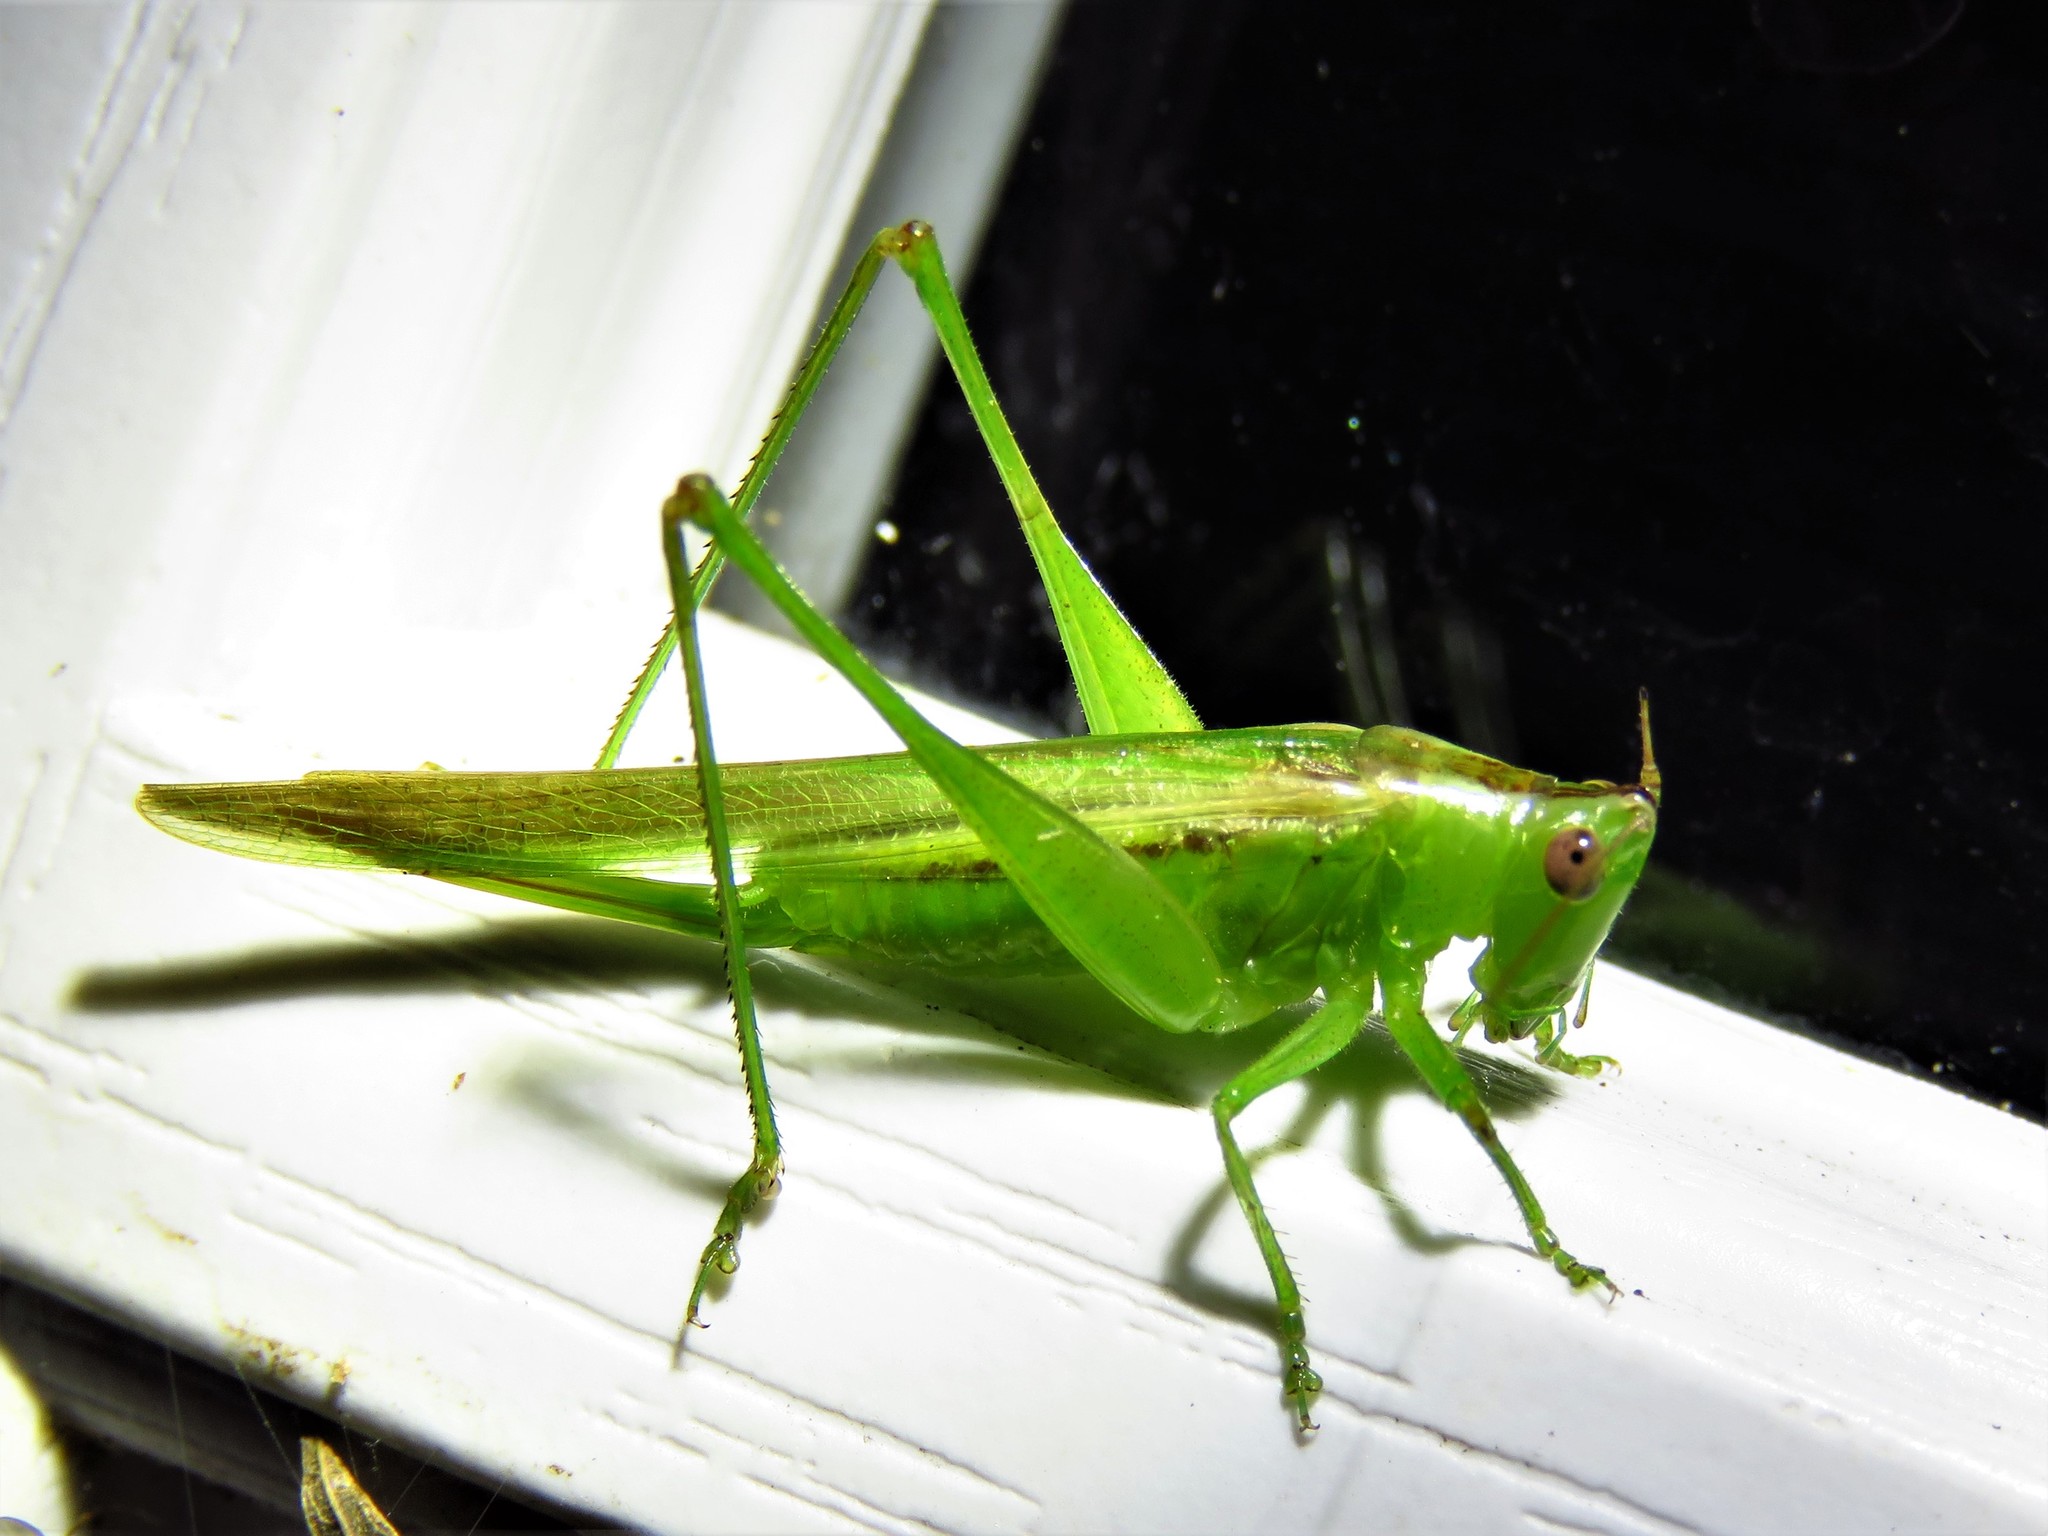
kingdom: Animalia
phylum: Arthropoda
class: Insecta
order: Orthoptera
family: Tettigoniidae
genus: Conocephalus
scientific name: Conocephalus fasciatus
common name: Slender meadow katydid
